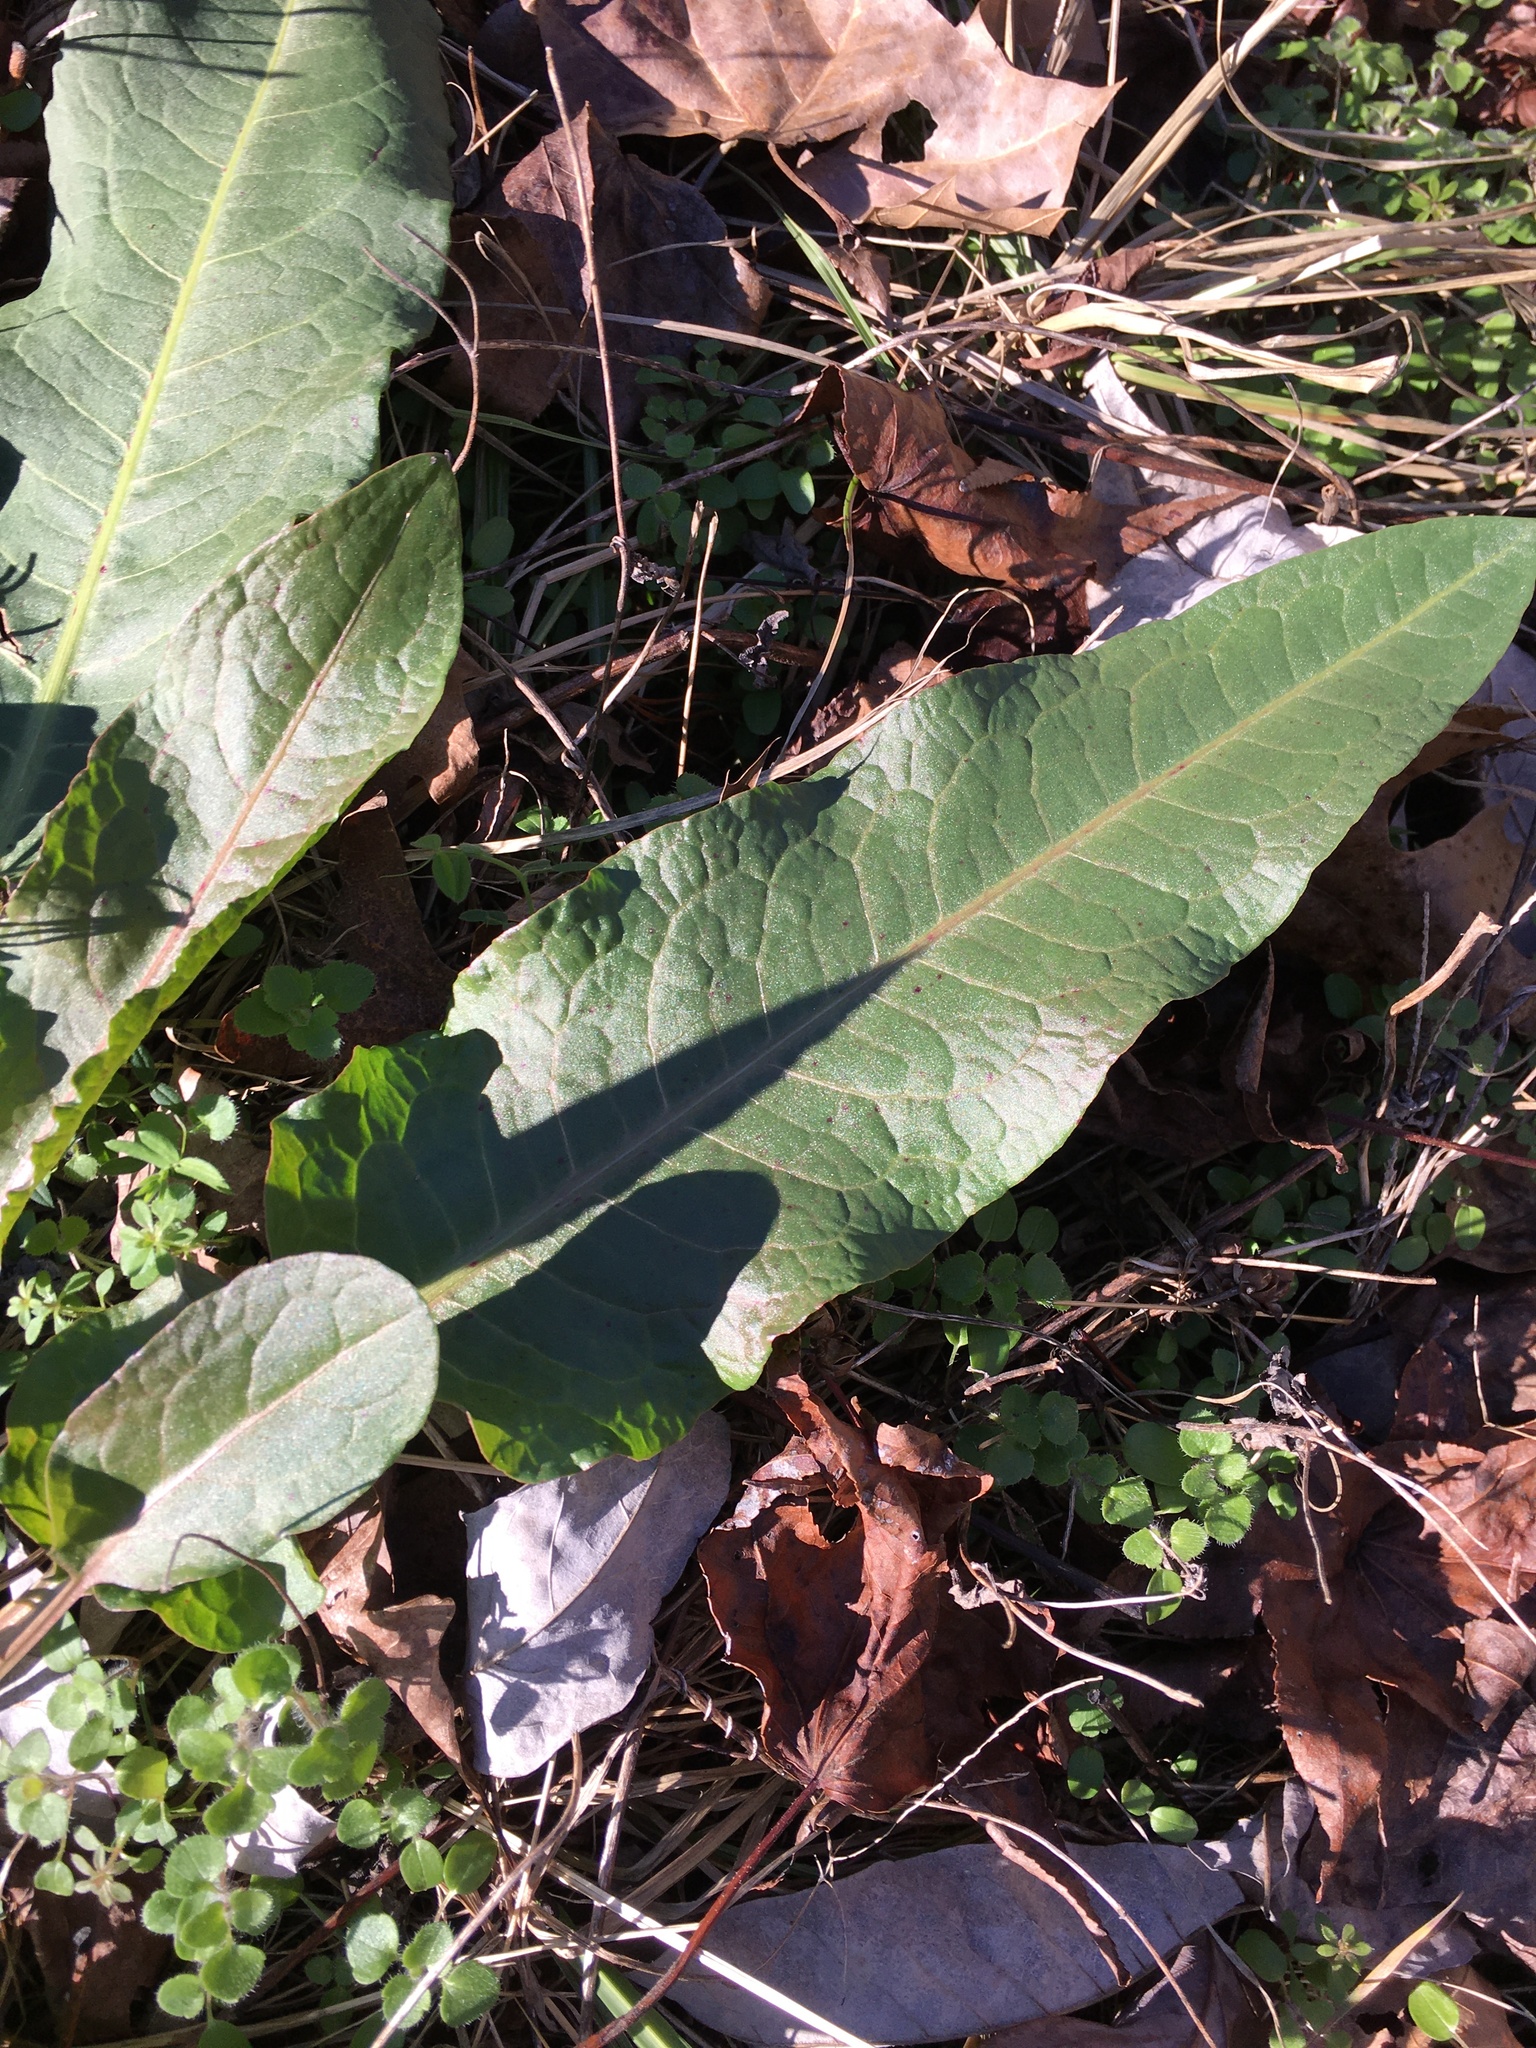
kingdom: Plantae
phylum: Tracheophyta
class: Magnoliopsida
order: Caryophyllales
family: Polygonaceae
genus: Rumex
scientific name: Rumex crispus
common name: Curled dock
